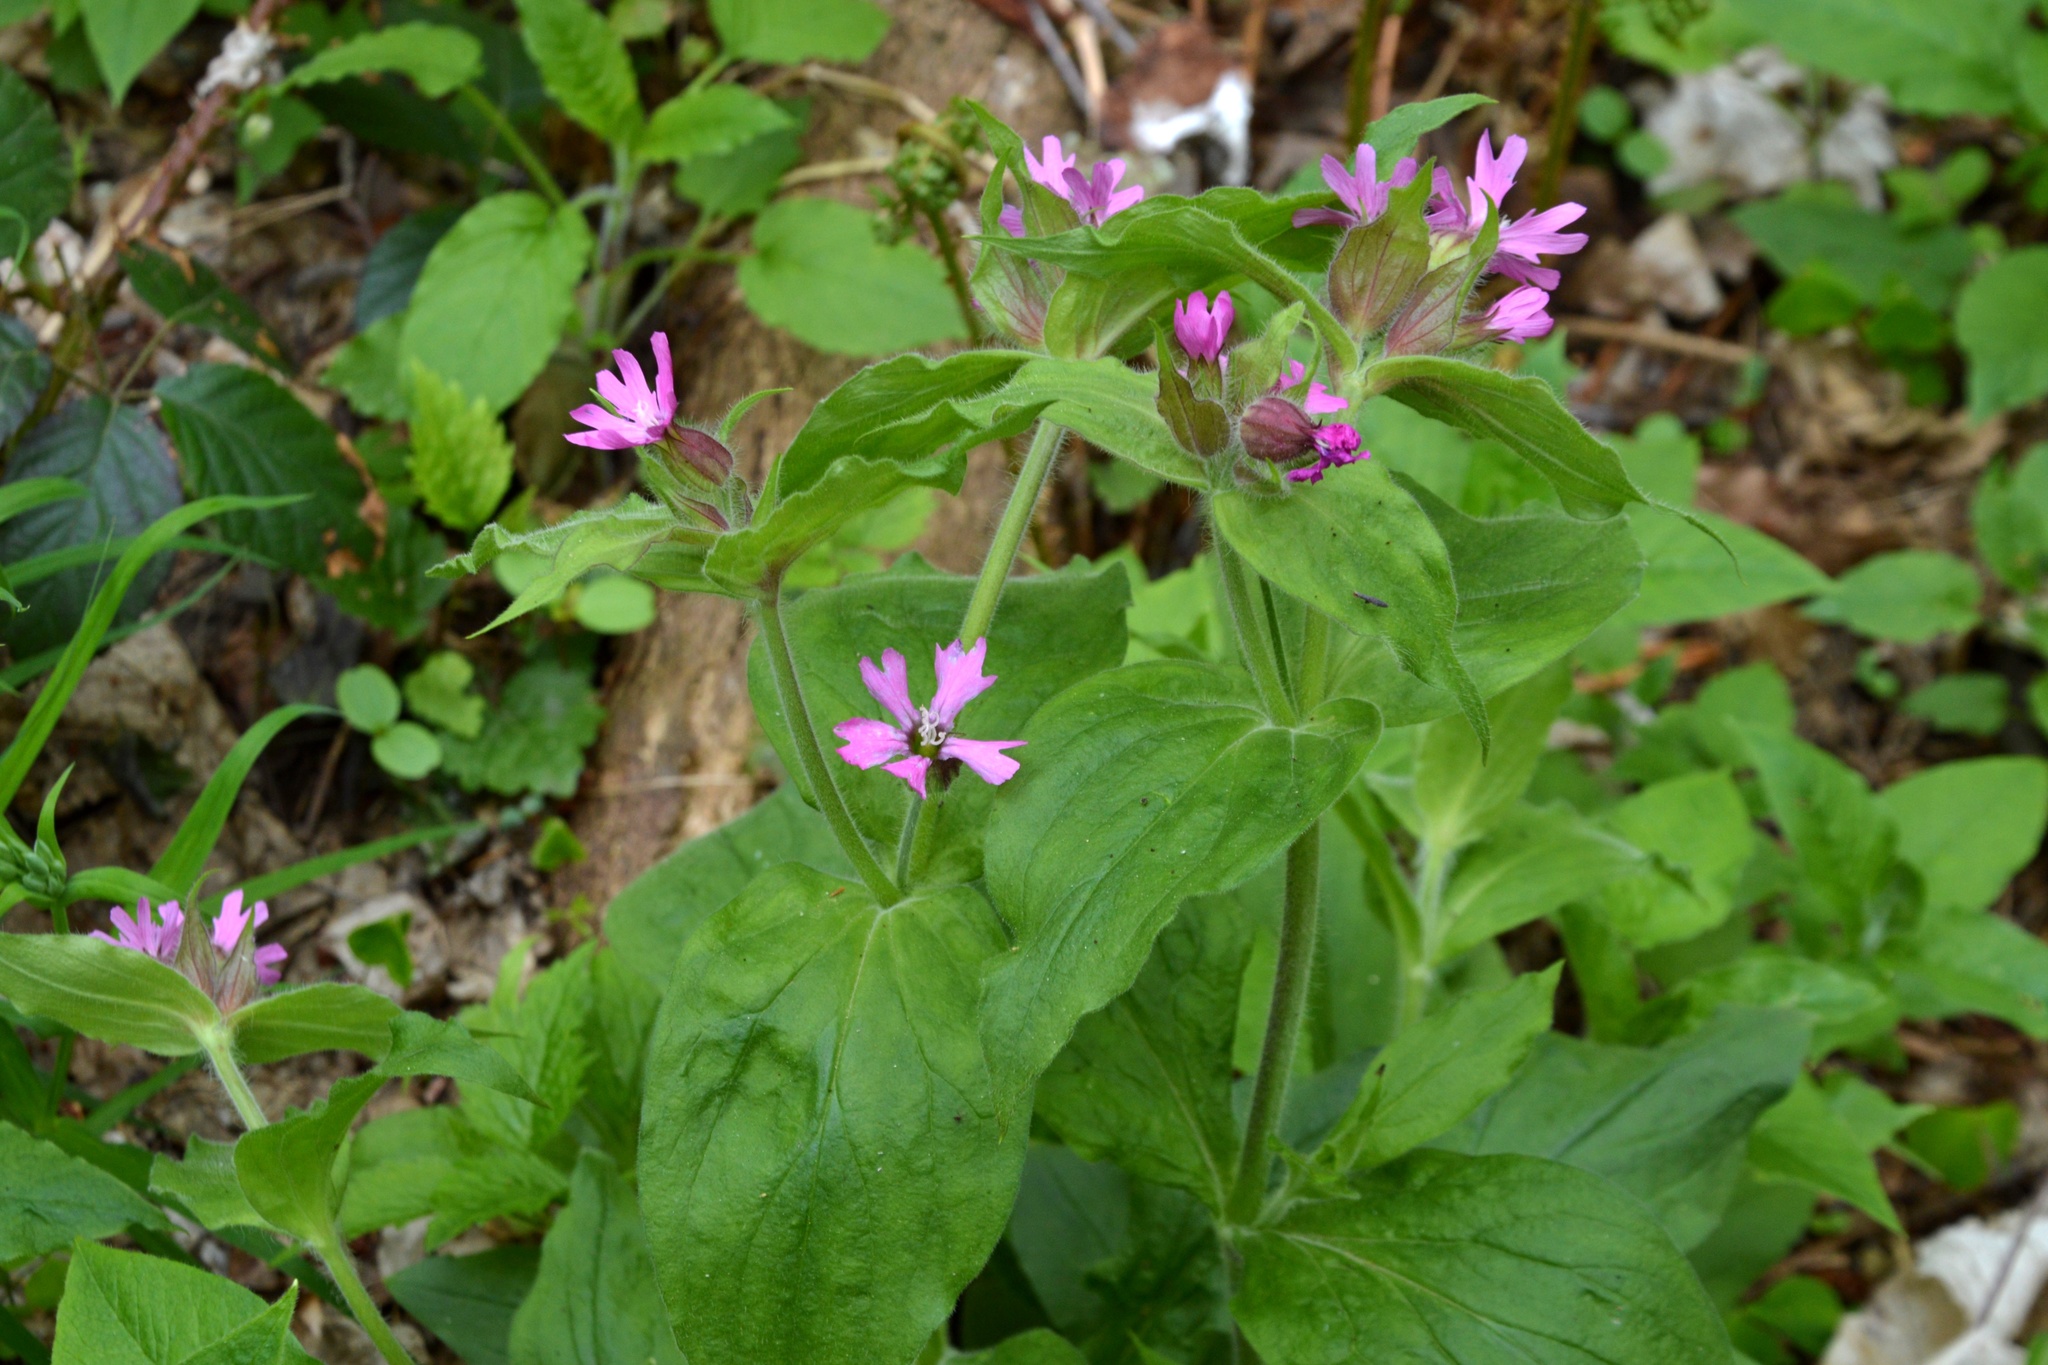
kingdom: Plantae
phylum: Tracheophyta
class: Magnoliopsida
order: Caryophyllales
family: Caryophyllaceae
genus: Silene
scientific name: Silene dioica
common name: Red campion
